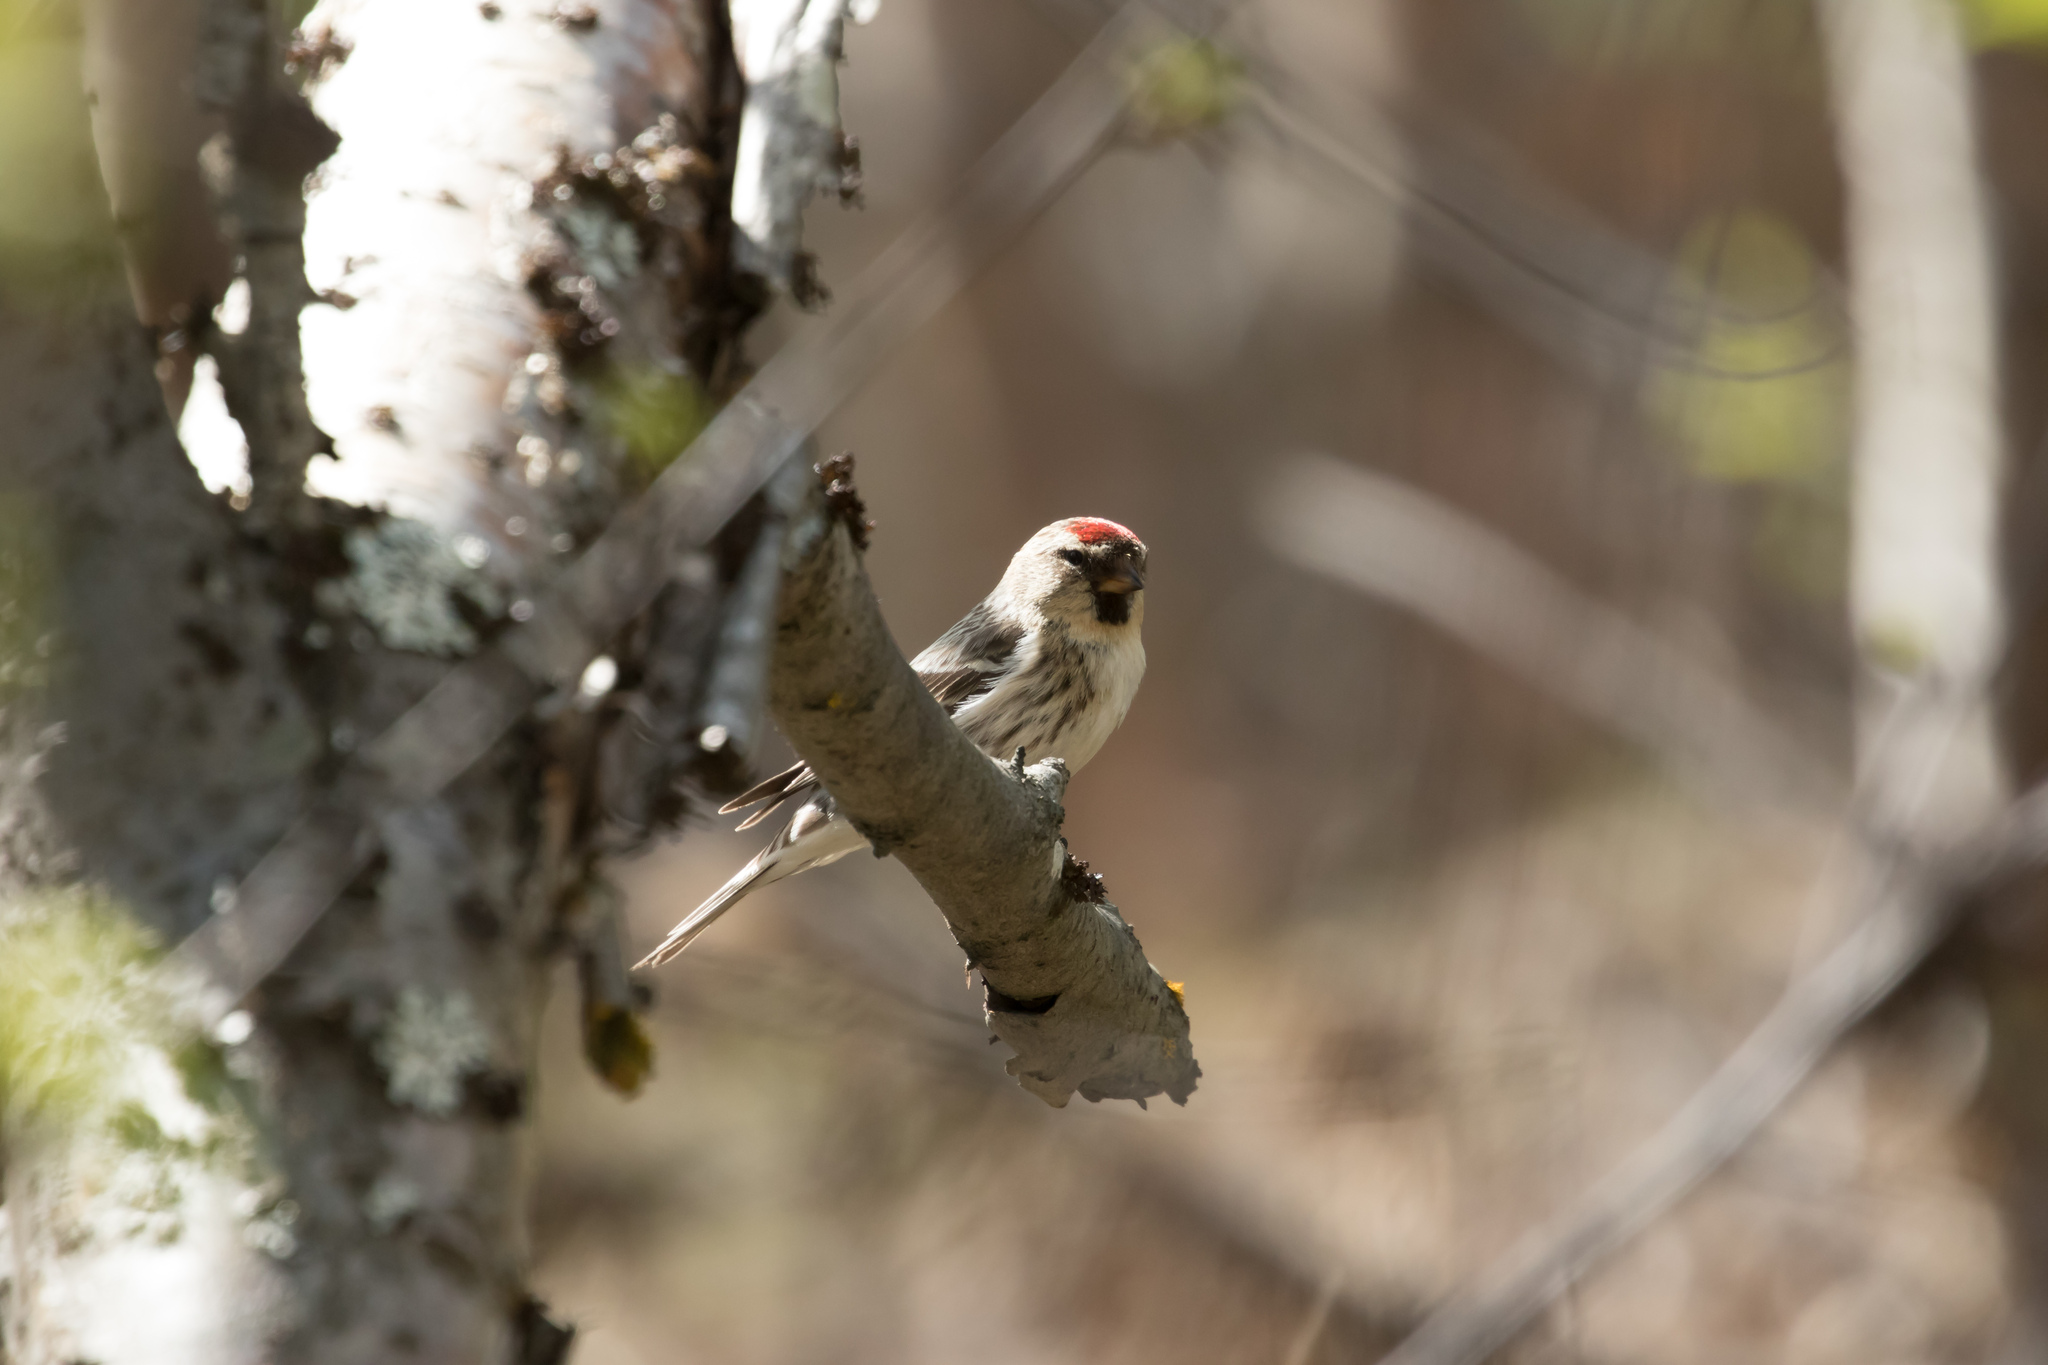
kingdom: Animalia
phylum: Chordata
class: Aves
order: Passeriformes
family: Fringillidae
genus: Acanthis
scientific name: Acanthis flammea
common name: Common redpoll
